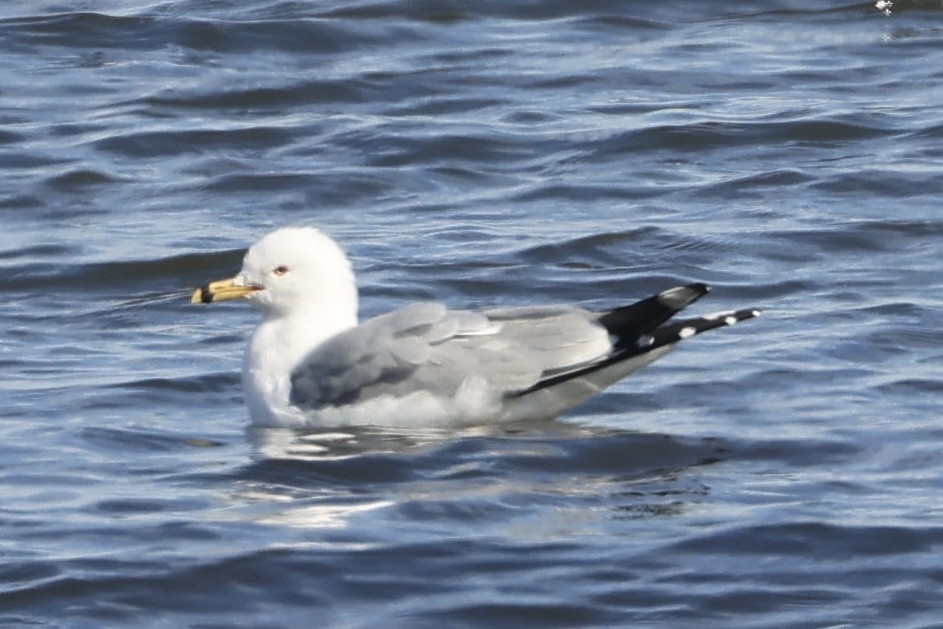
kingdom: Animalia
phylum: Chordata
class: Aves
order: Charadriiformes
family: Laridae
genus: Larus
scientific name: Larus delawarensis
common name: Ring-billed gull
